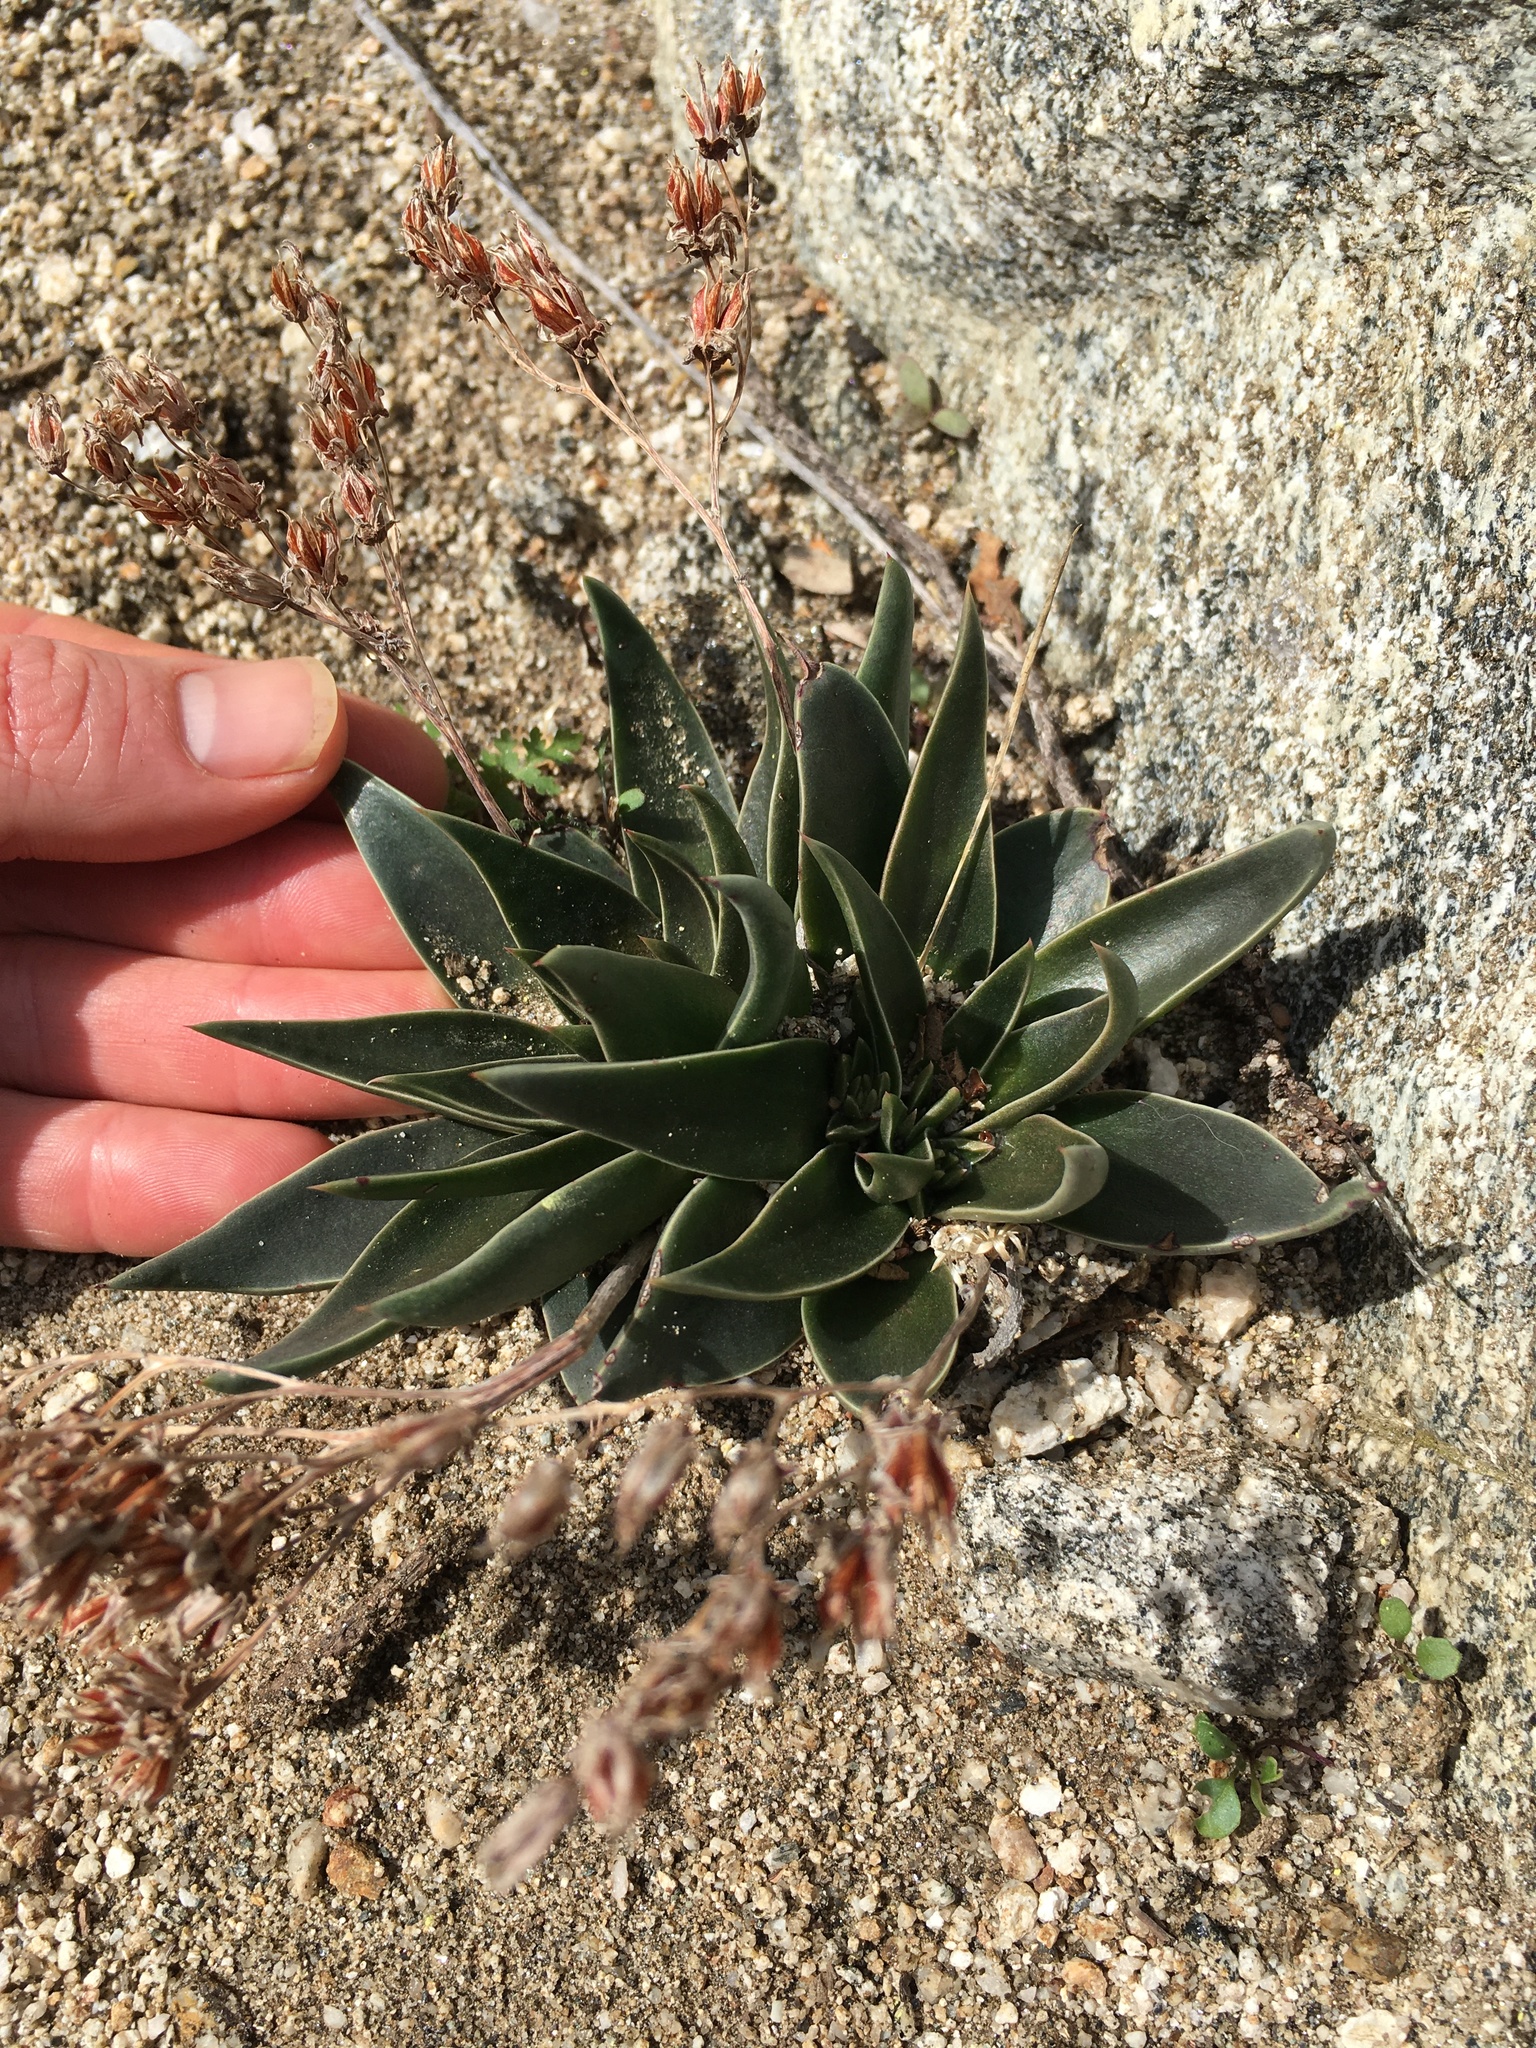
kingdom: Plantae
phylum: Tracheophyta
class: Magnoliopsida
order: Saxifragales
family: Crassulaceae
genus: Dudleya
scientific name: Dudleya lanceolata
